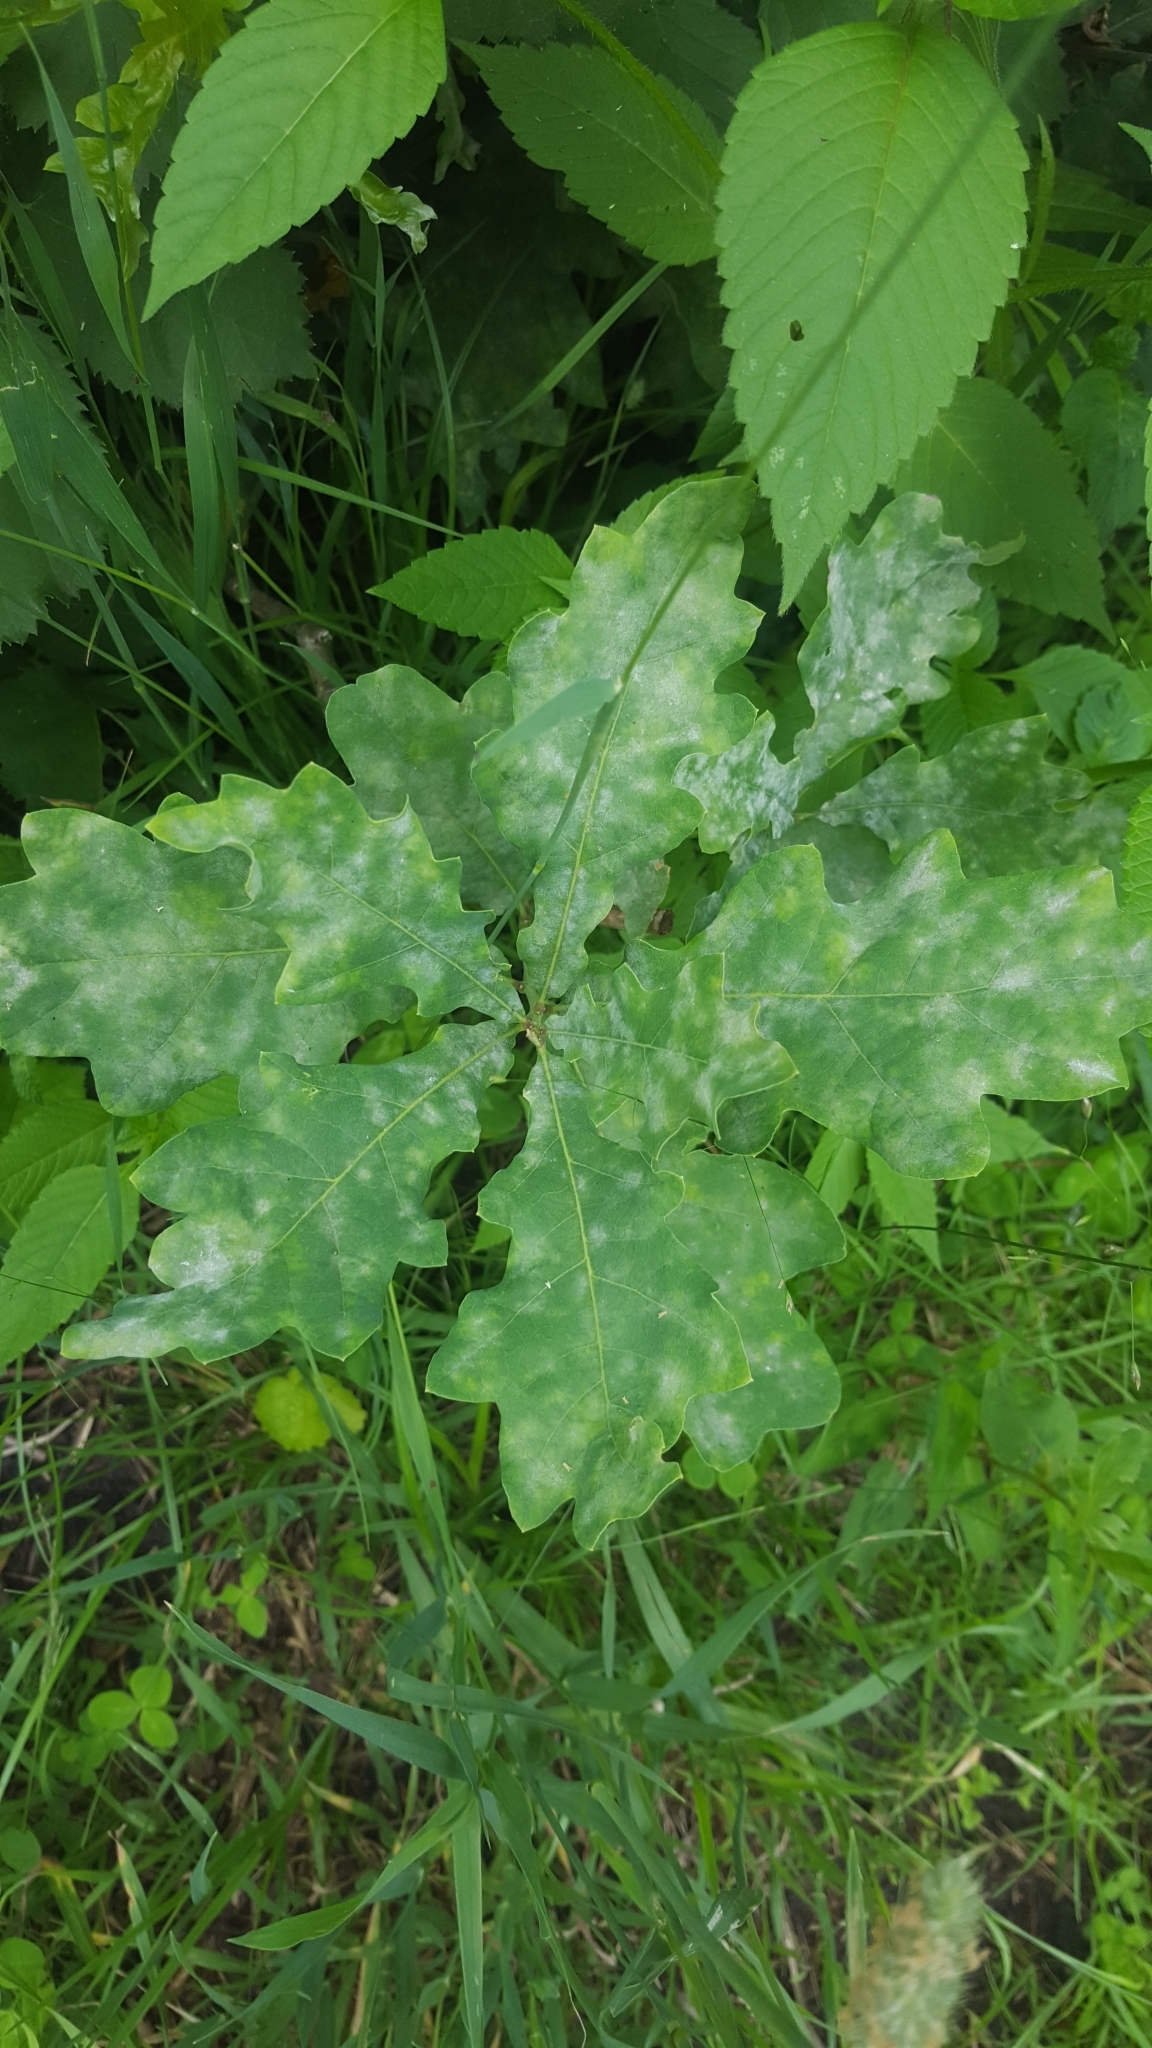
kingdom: Fungi
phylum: Ascomycota
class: Leotiomycetes
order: Helotiales
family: Erysiphaceae
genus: Erysiphe
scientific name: Erysiphe
